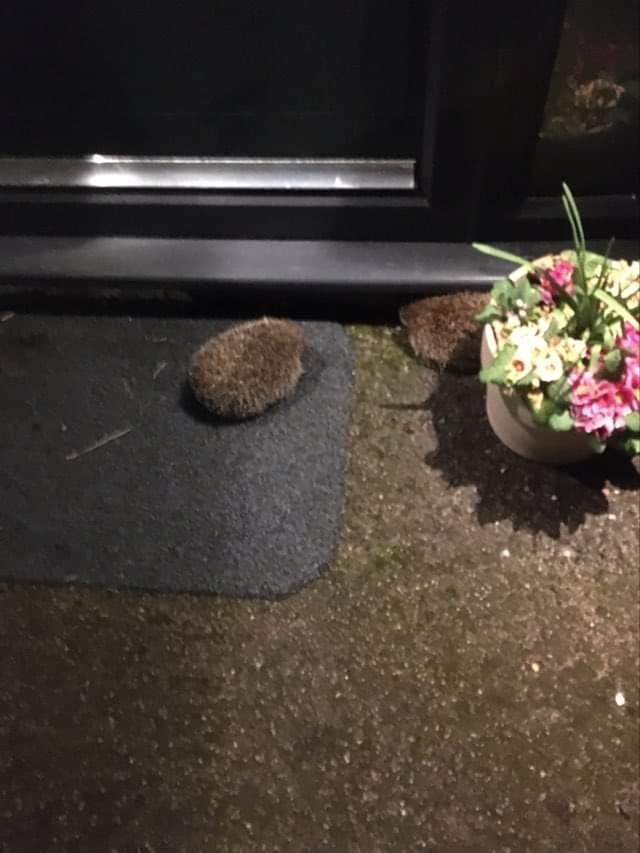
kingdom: Animalia
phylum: Chordata
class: Mammalia
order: Erinaceomorpha
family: Erinaceidae
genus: Erinaceus
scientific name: Erinaceus europaeus
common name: West european hedgehog
